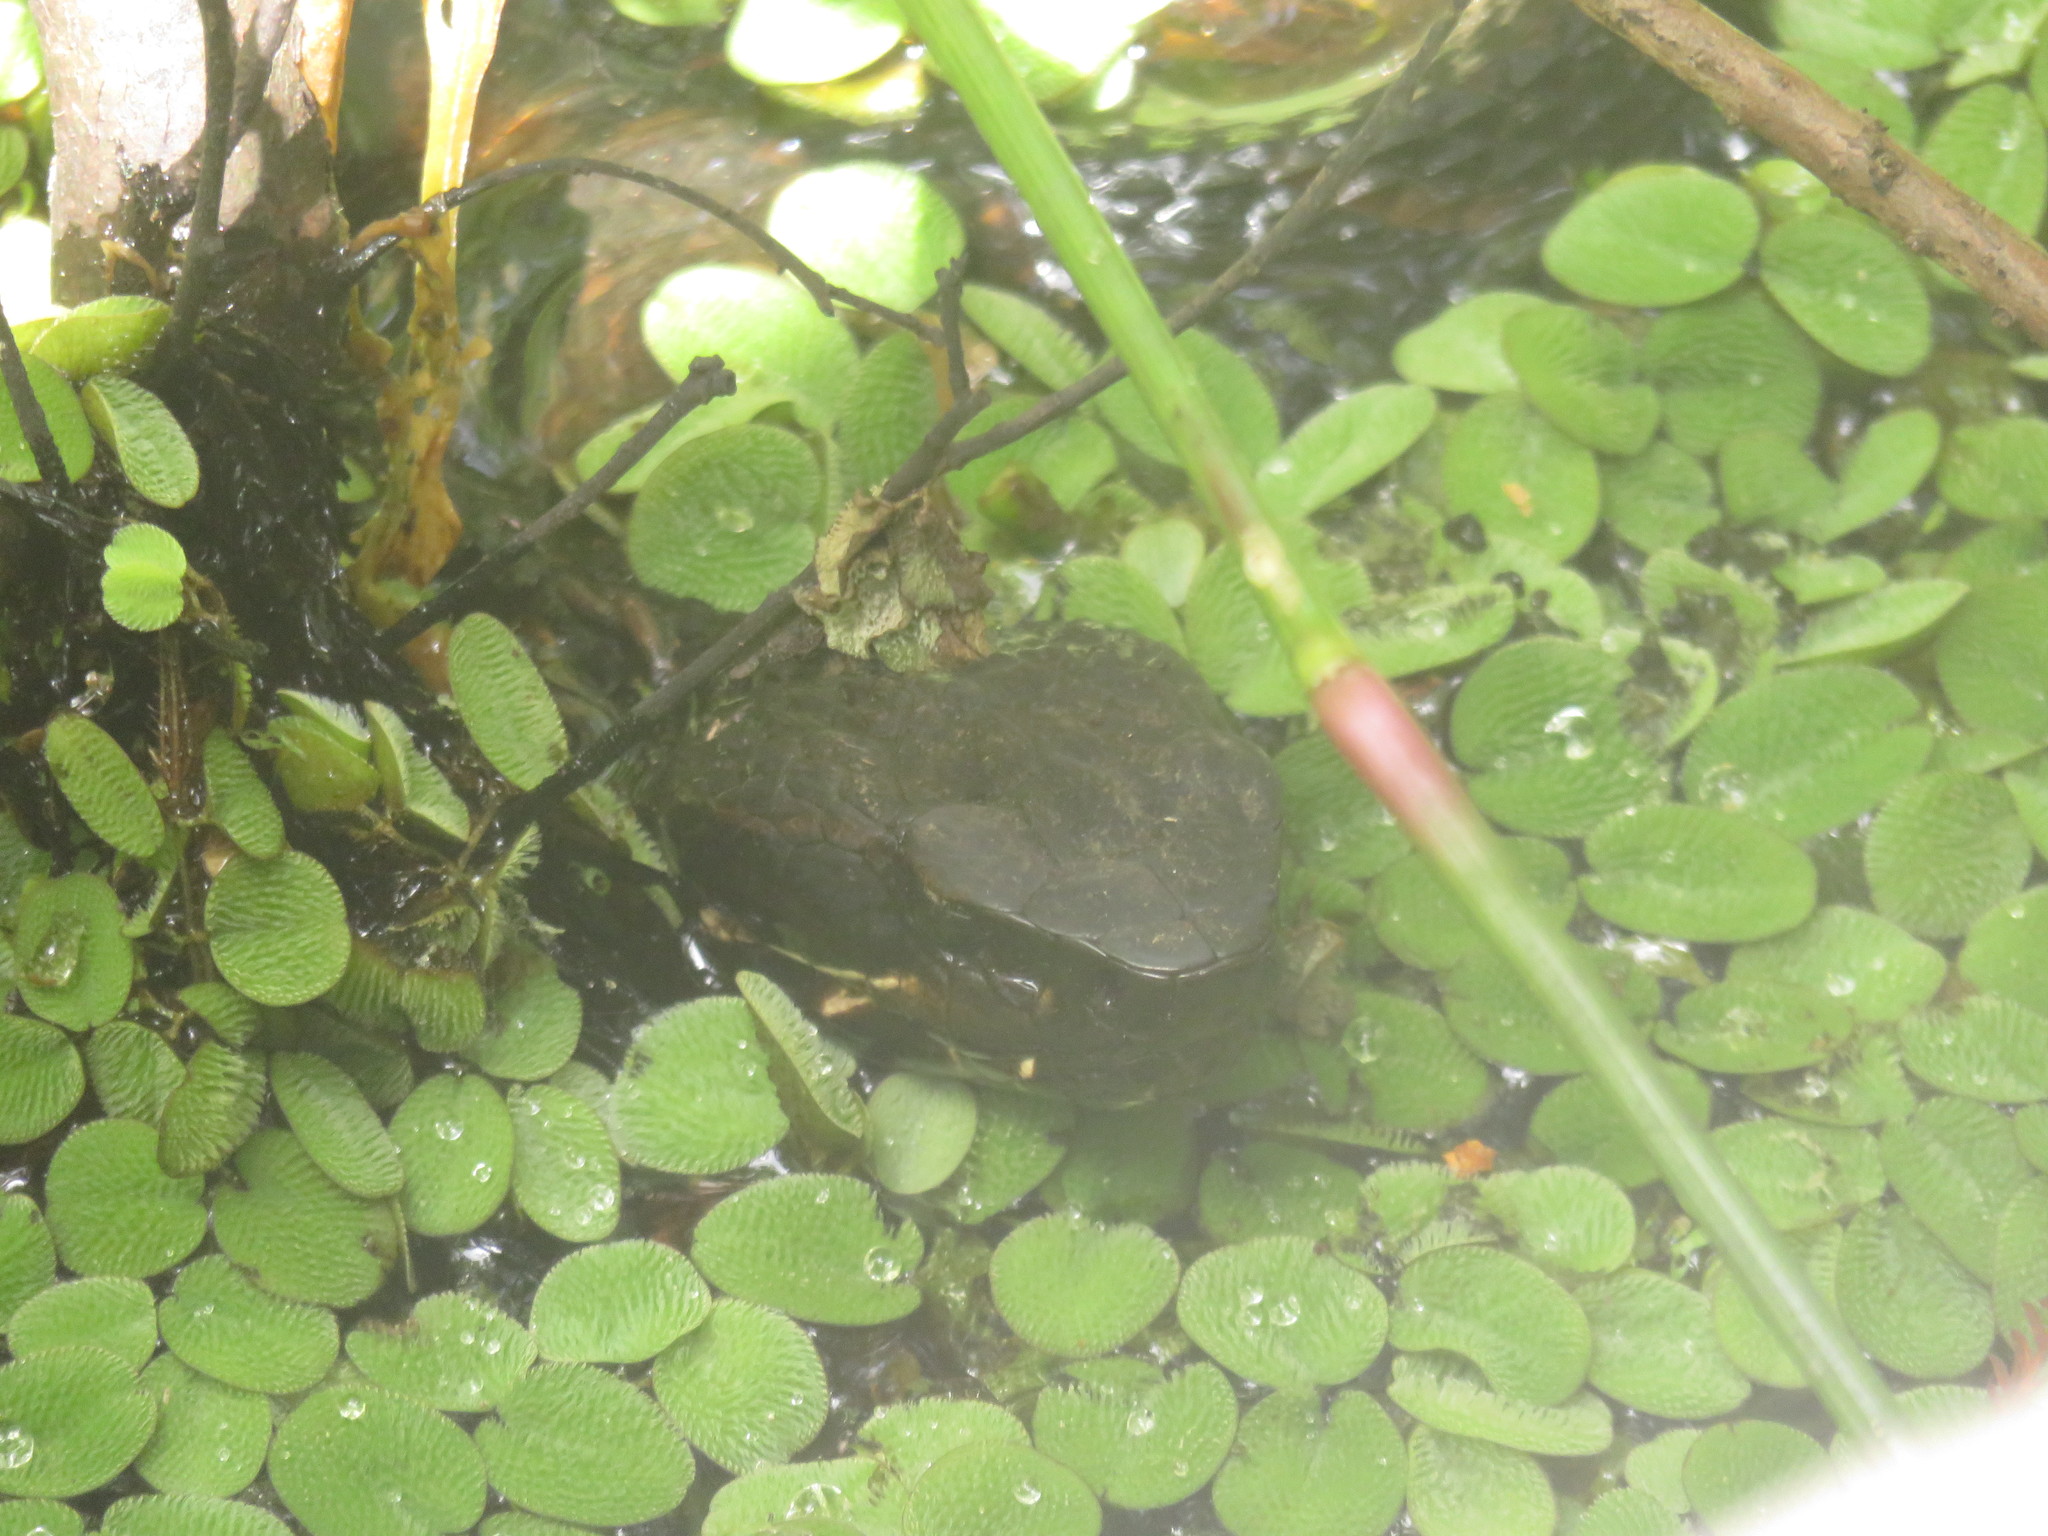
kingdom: Animalia
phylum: Chordata
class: Squamata
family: Viperidae
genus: Agkistrodon
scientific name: Agkistrodon piscivorus
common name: Cottonmouth
